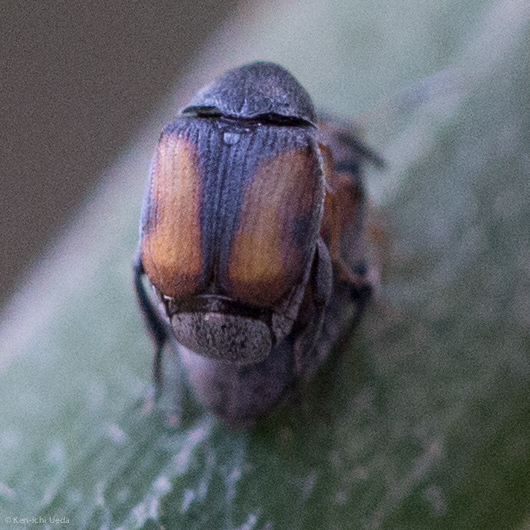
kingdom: Animalia
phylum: Arthropoda
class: Insecta
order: Coleoptera
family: Chrysomelidae
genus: Stator
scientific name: Stator limbatus
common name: Leaf beetle
